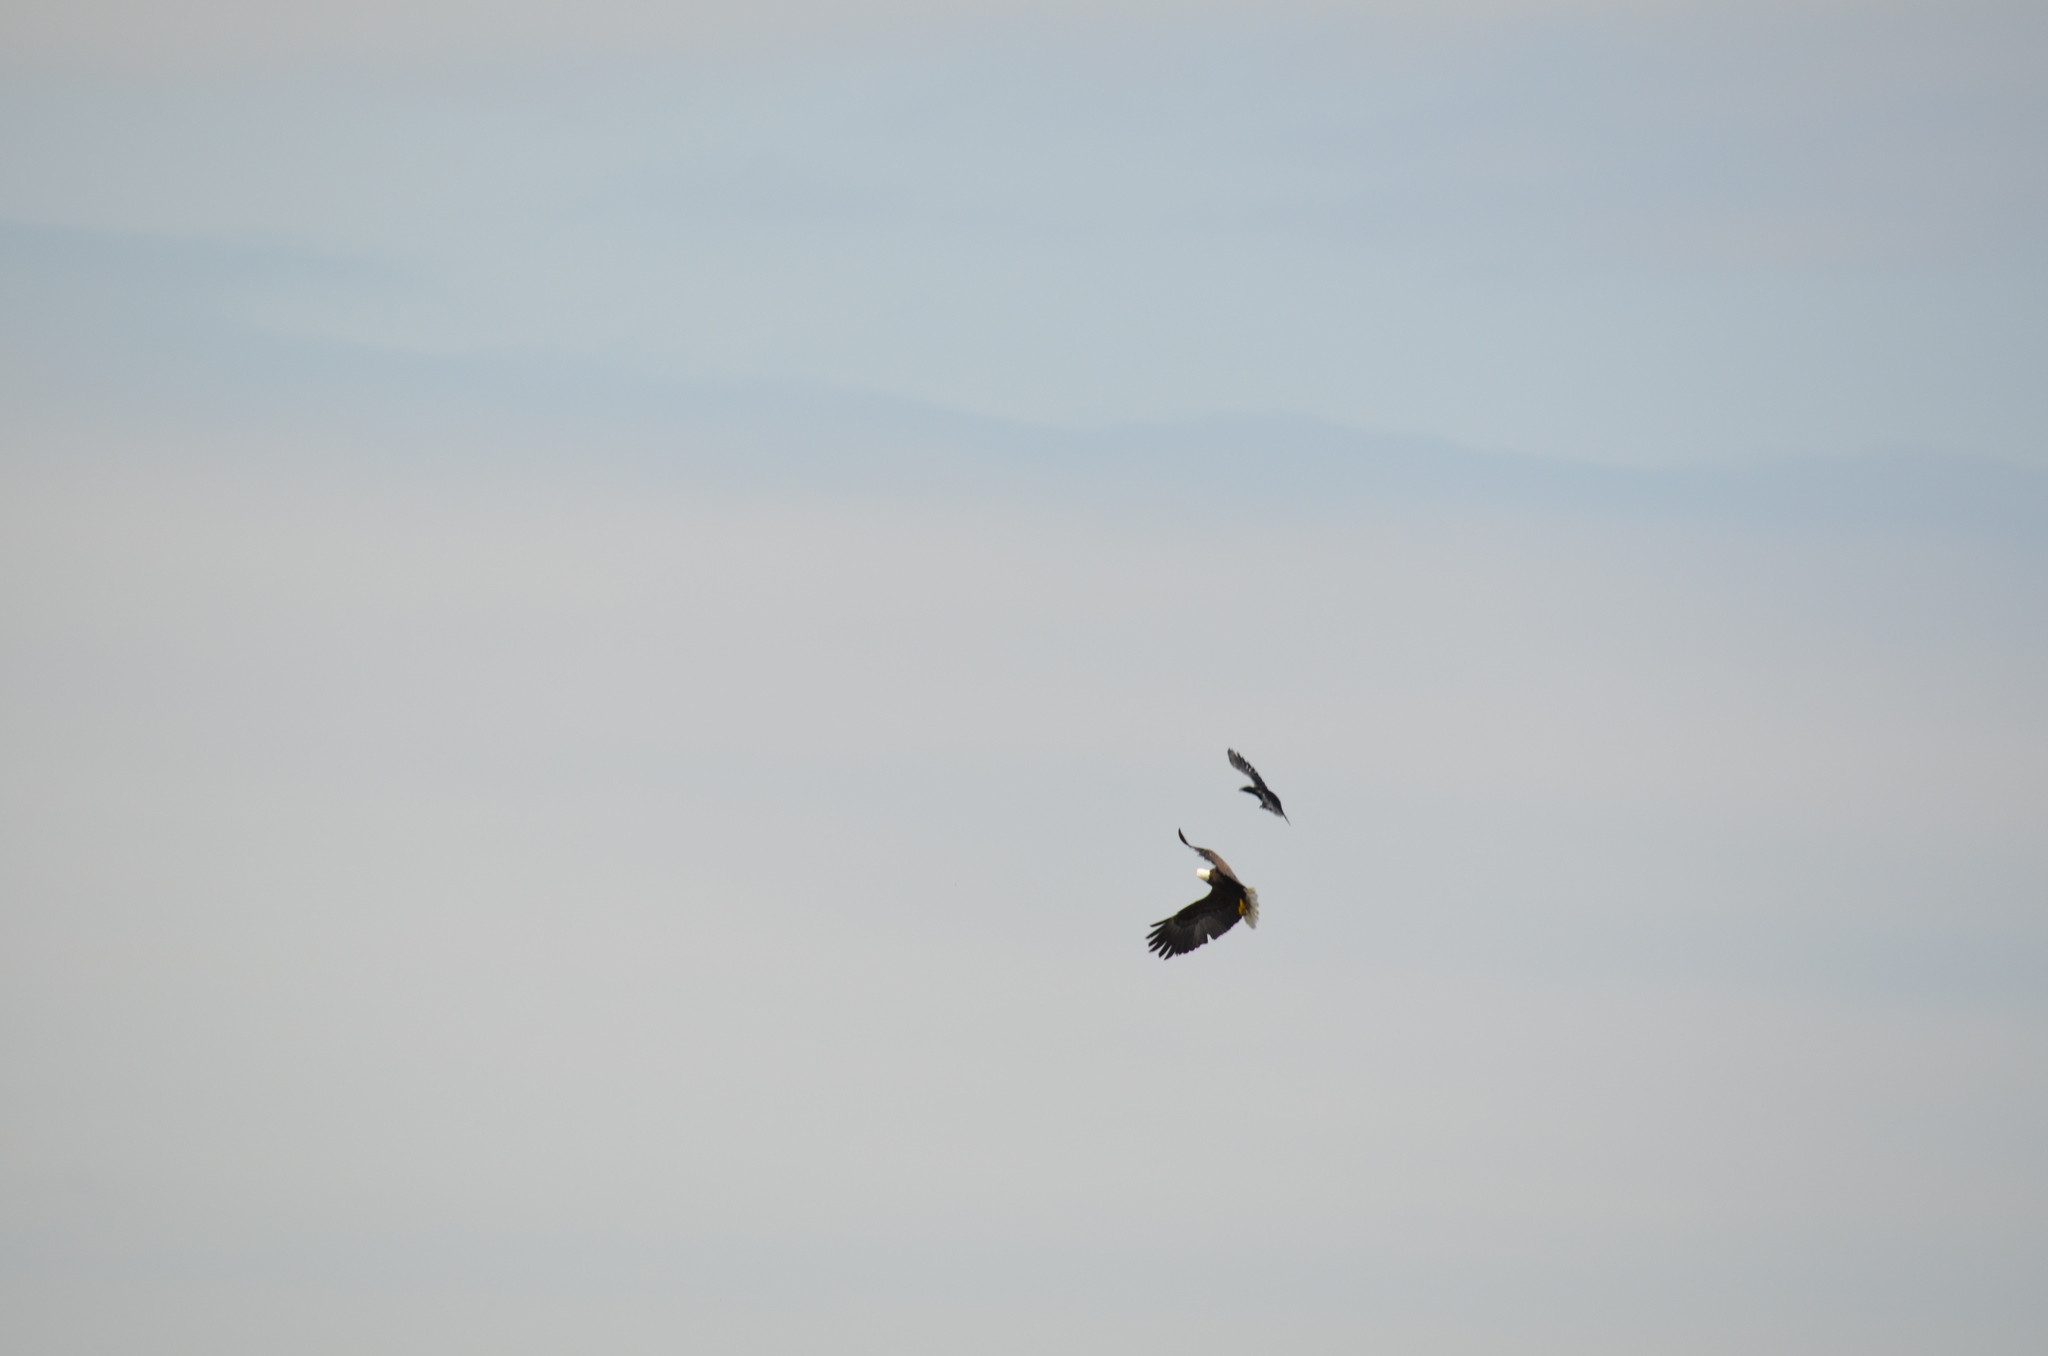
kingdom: Animalia
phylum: Chordata
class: Aves
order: Passeriformes
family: Corvidae
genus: Corvus
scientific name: Corvus corax
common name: Common raven
